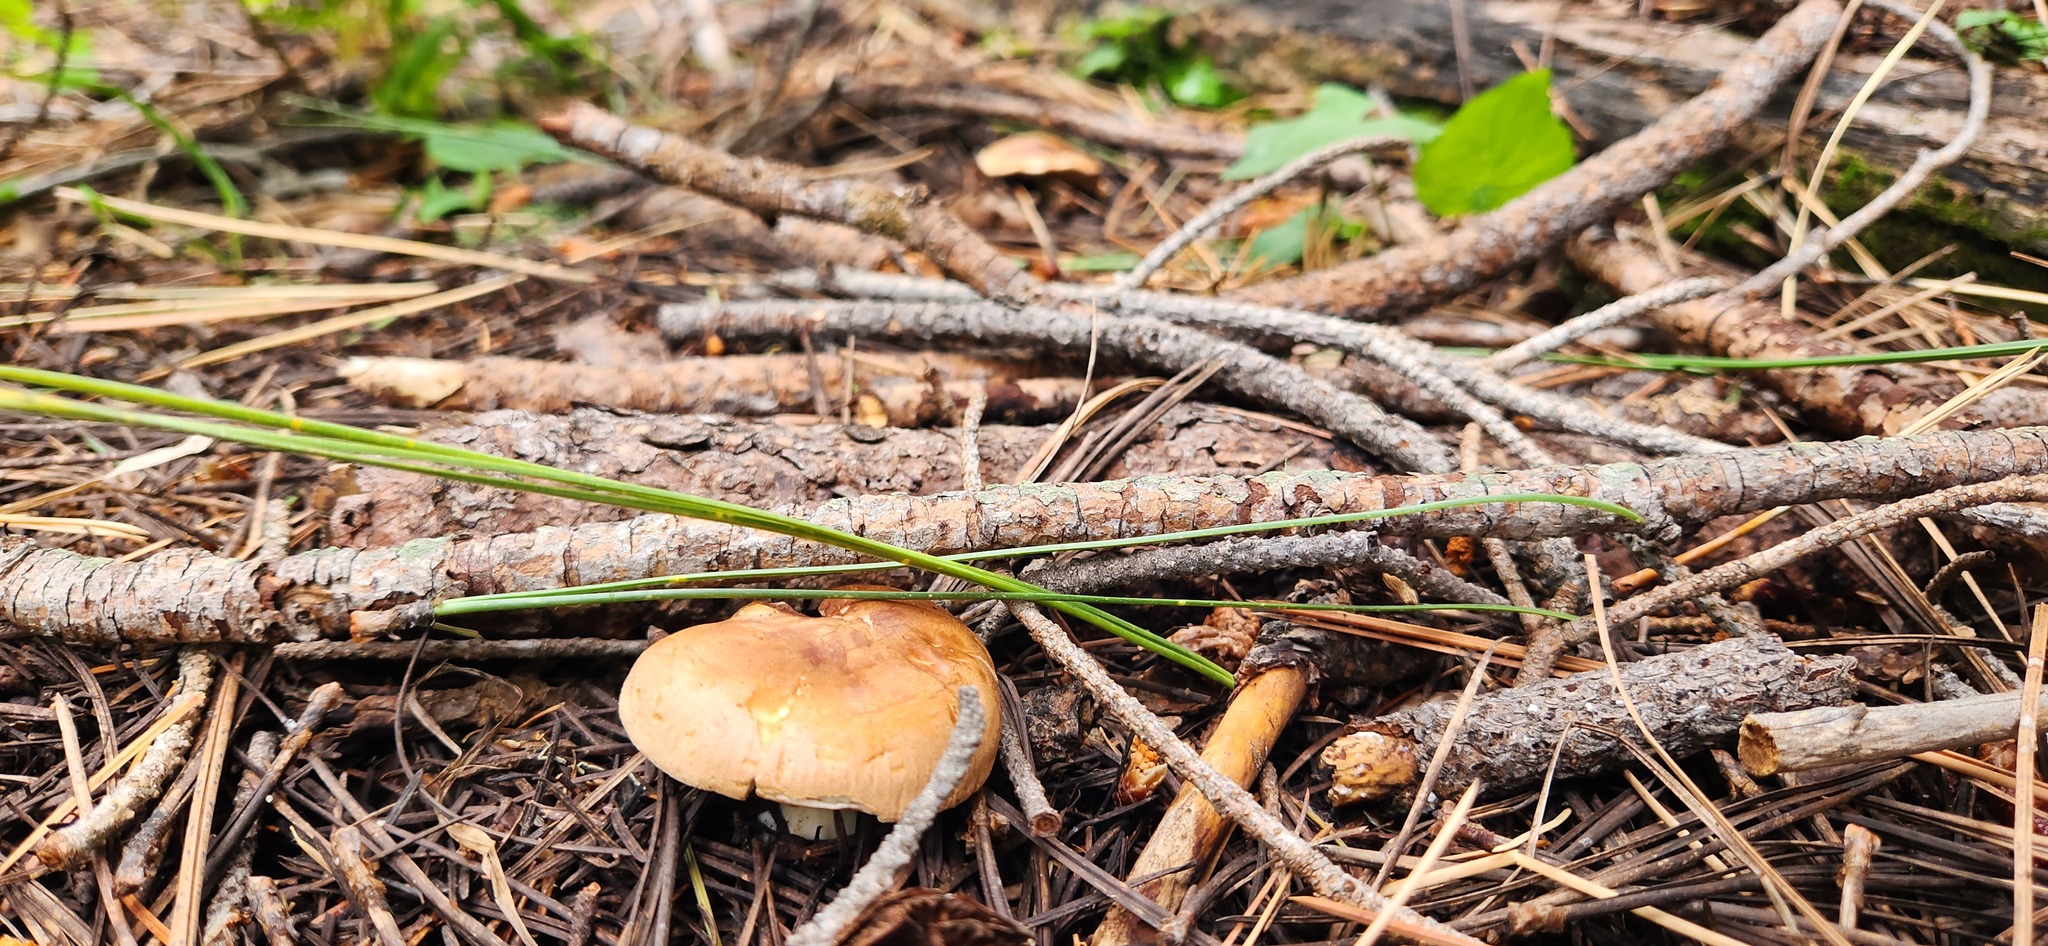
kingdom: Fungi
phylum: Basidiomycota
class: Agaricomycetes
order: Agaricales
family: Tricholomataceae
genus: Leucopaxillus
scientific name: Leucopaxillus gentianeus
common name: Bitter funnel
